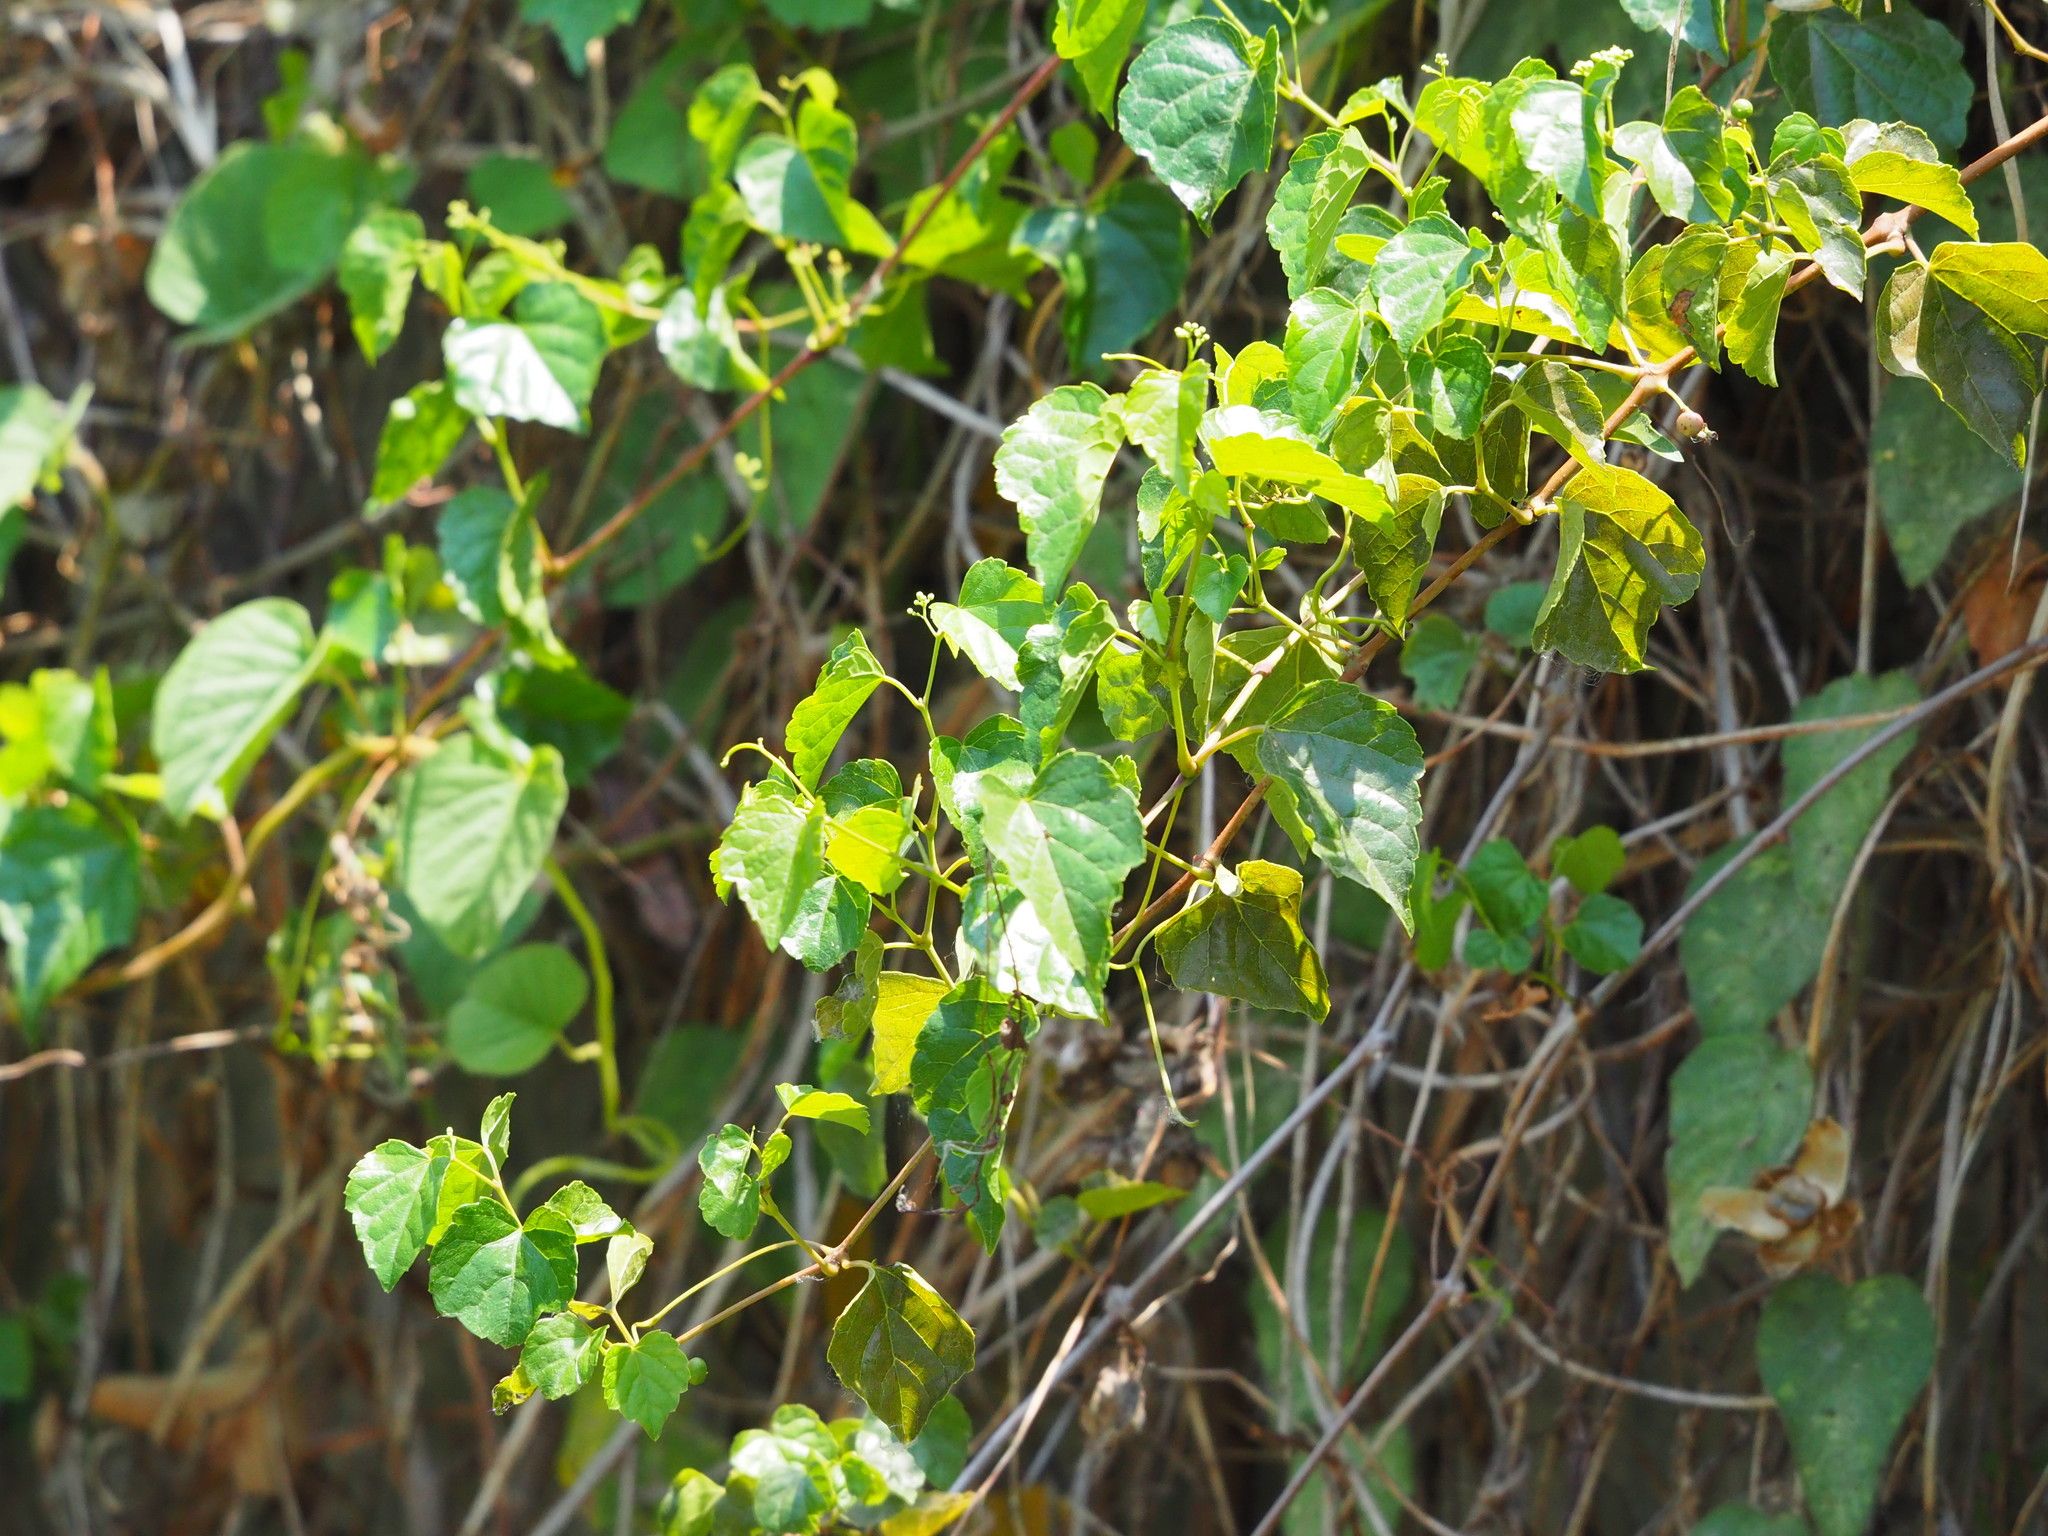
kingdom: Plantae
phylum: Tracheophyta
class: Magnoliopsida
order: Vitales
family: Vitaceae
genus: Ampelopsis
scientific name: Ampelopsis glandulosa
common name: Amur peppervine
